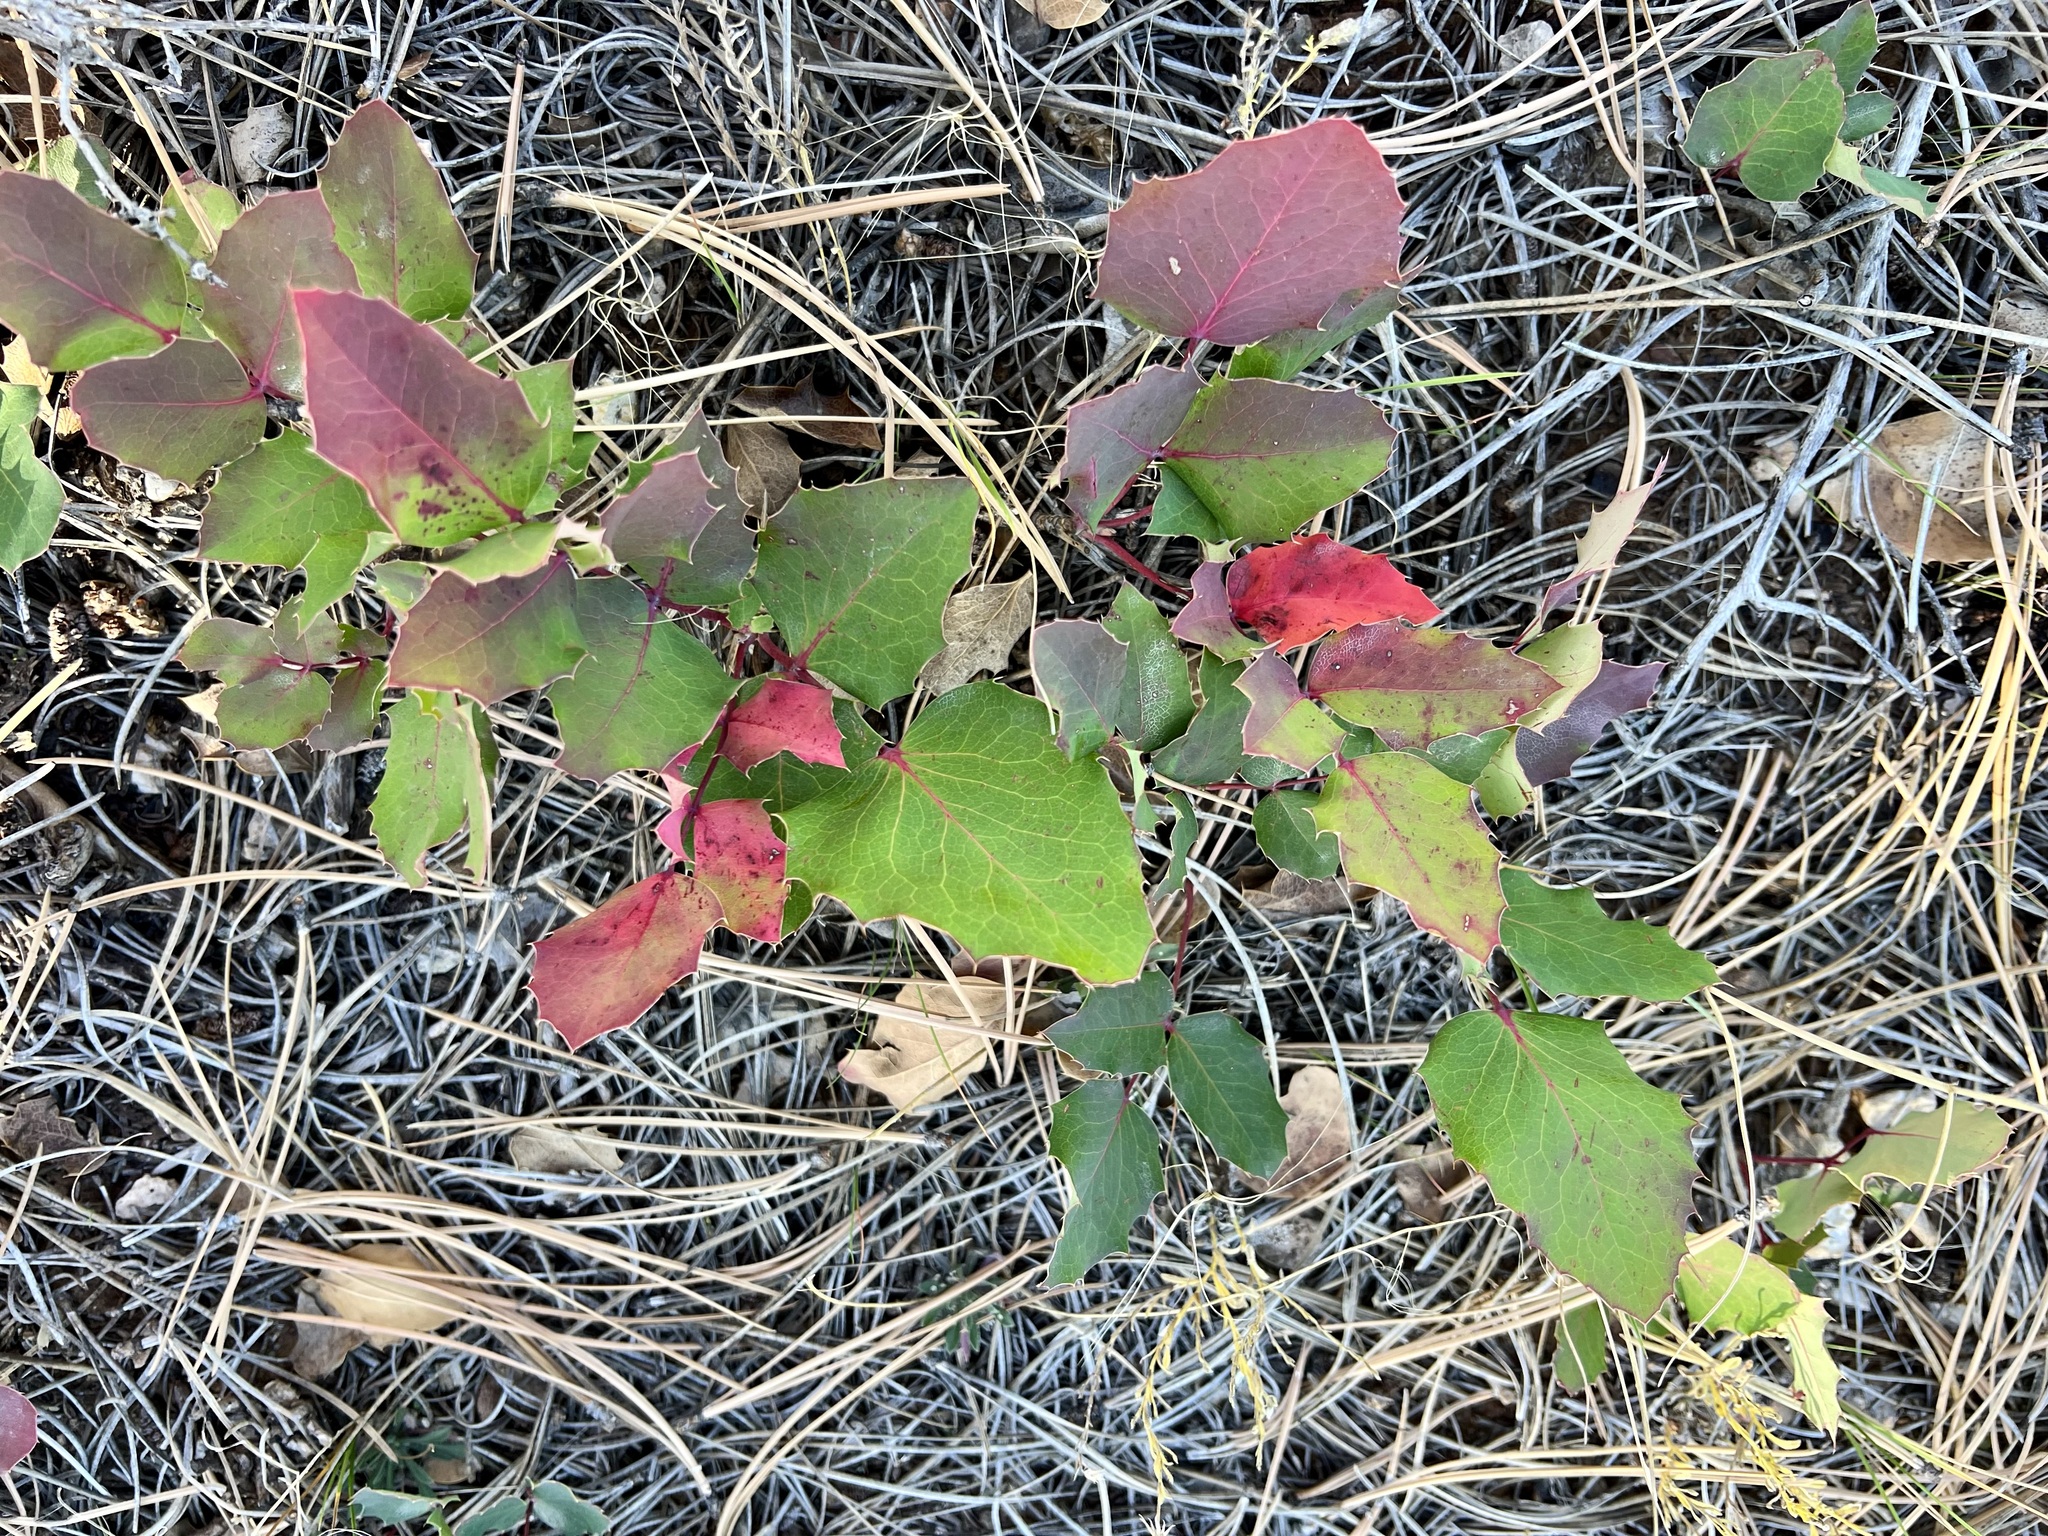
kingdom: Plantae
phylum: Tracheophyta
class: Magnoliopsida
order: Ranunculales
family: Berberidaceae
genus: Mahonia
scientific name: Mahonia repens
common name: Creeping oregon-grape
